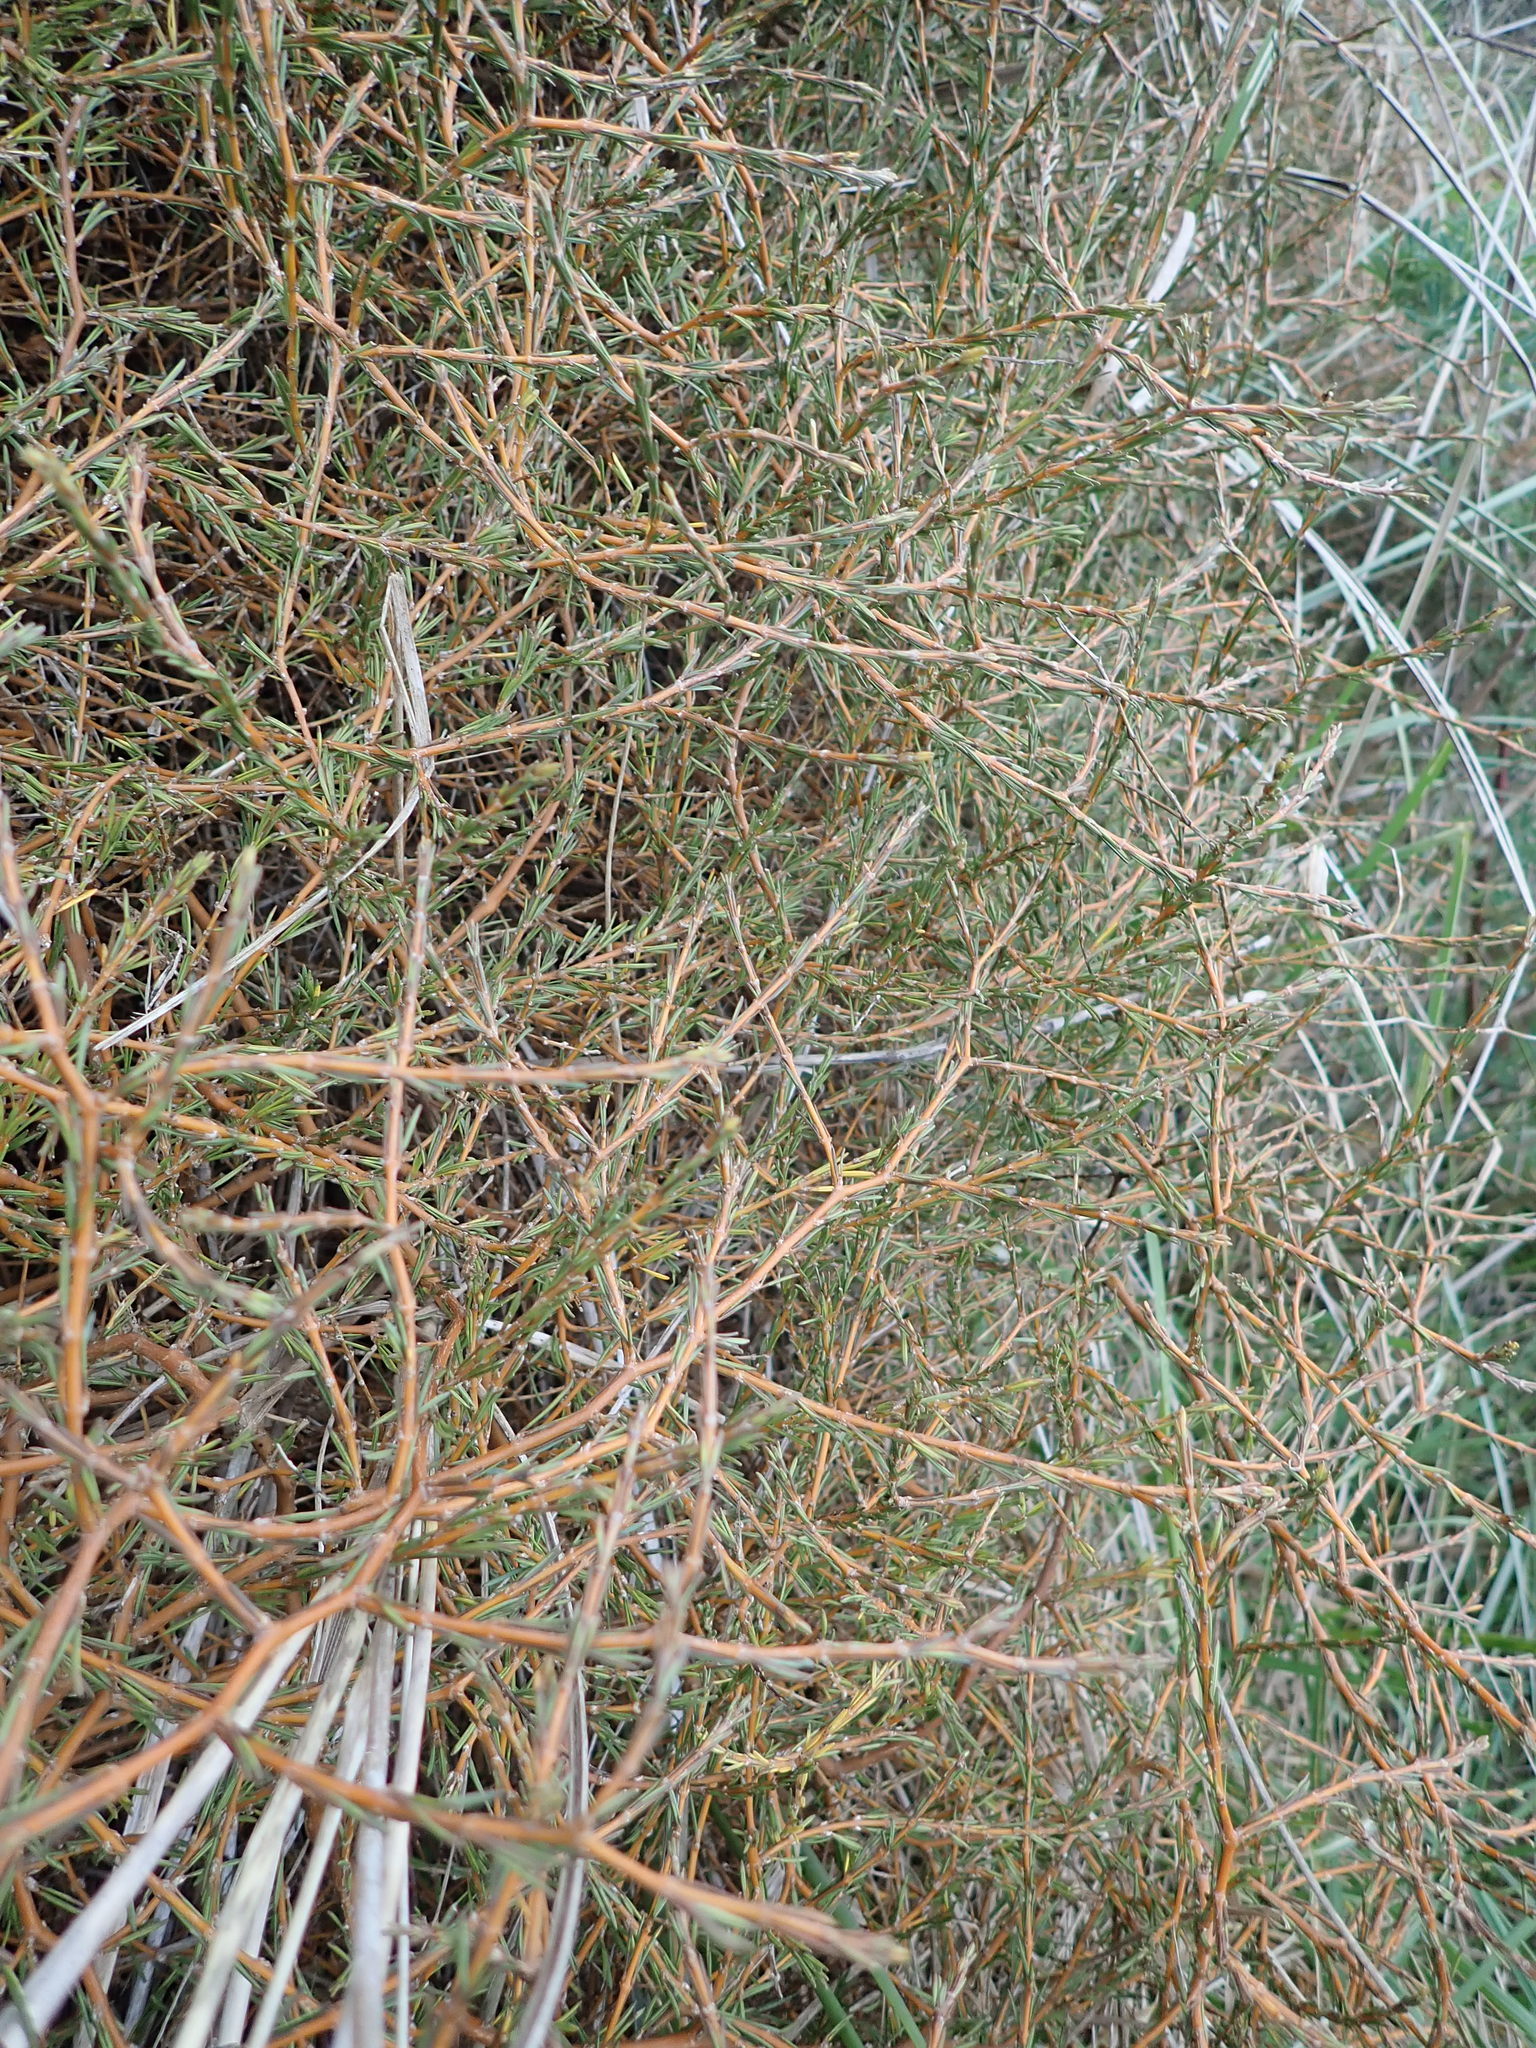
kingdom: Plantae
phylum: Tracheophyta
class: Magnoliopsida
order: Gentianales
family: Rubiaceae
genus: Coprosma
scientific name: Coprosma acerosa
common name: Sand coprosma
